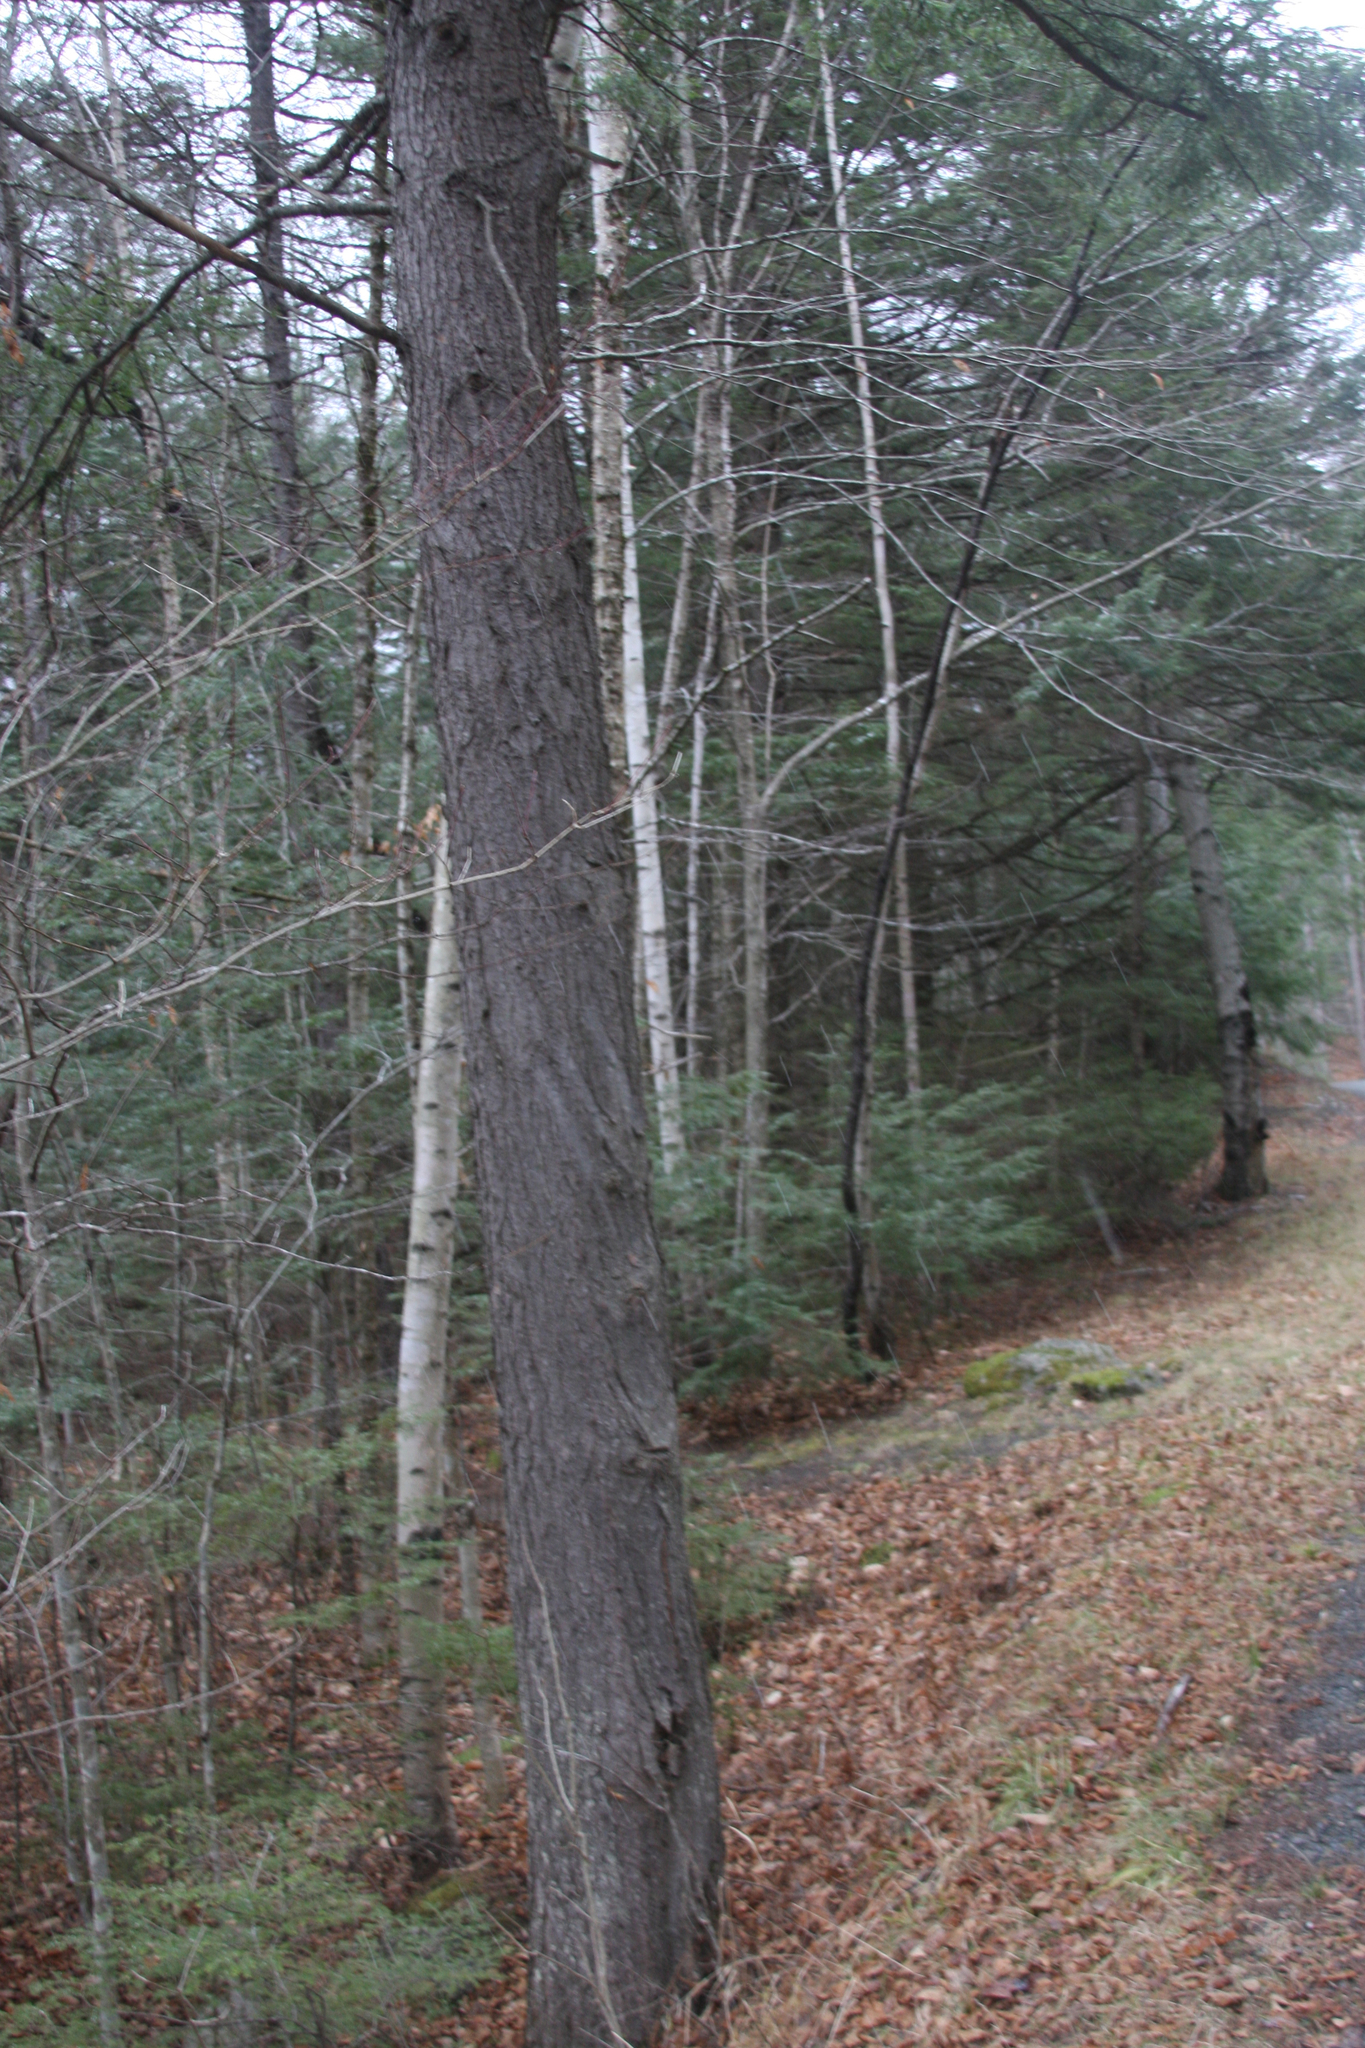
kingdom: Plantae
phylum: Tracheophyta
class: Pinopsida
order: Pinales
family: Pinaceae
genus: Tsuga
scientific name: Tsuga canadensis
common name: Eastern hemlock
